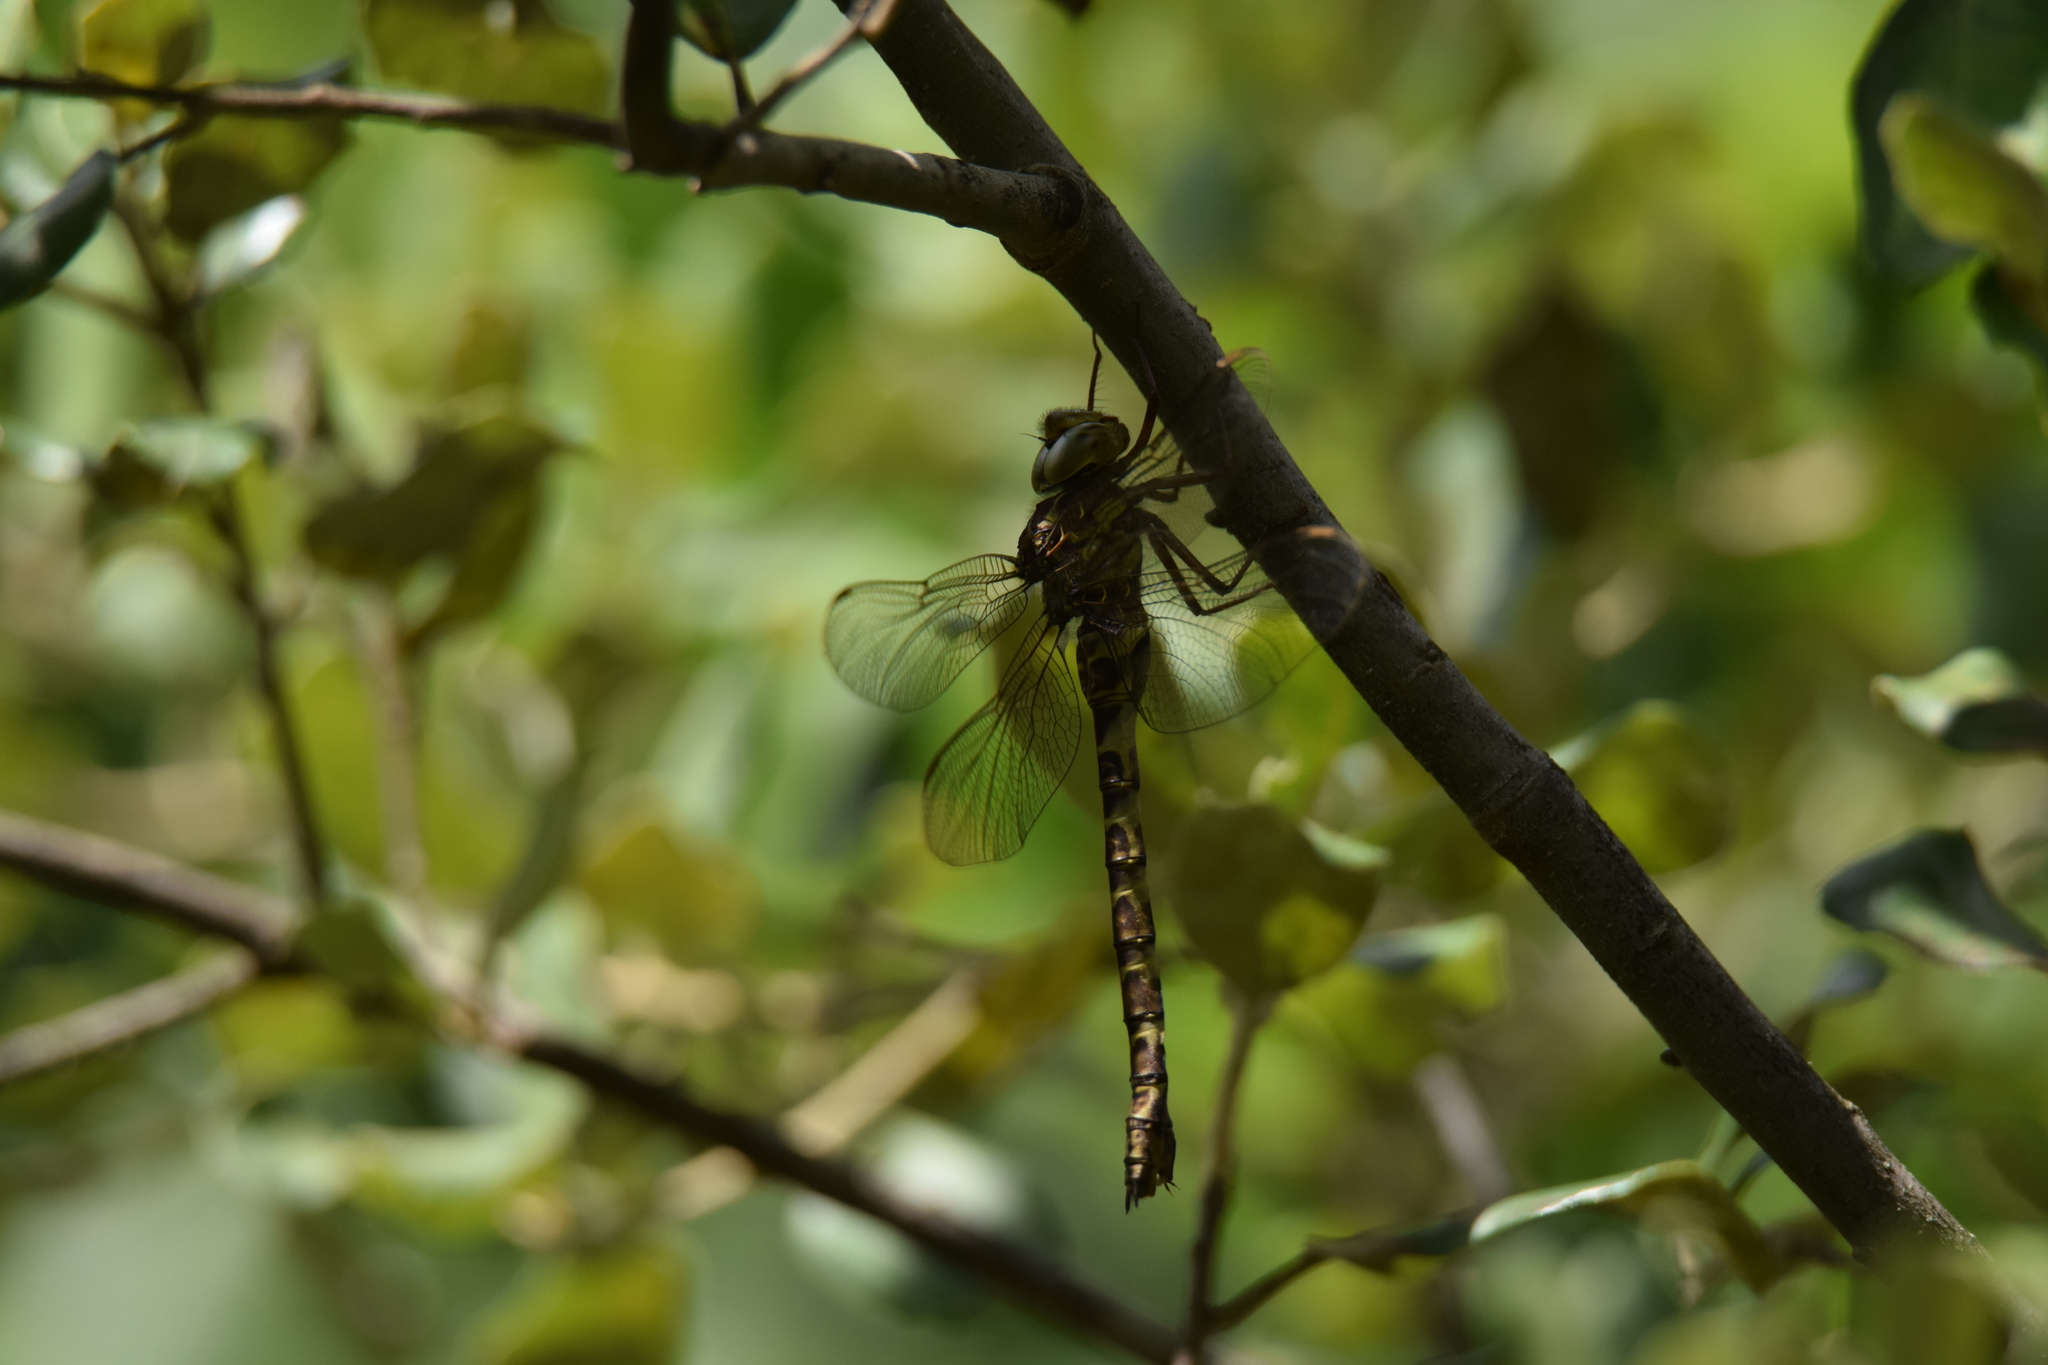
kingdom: Animalia
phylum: Arthropoda
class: Insecta
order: Odonata
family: Aeshnidae
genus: Boyeria
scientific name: Boyeria irene
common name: Western spectre
